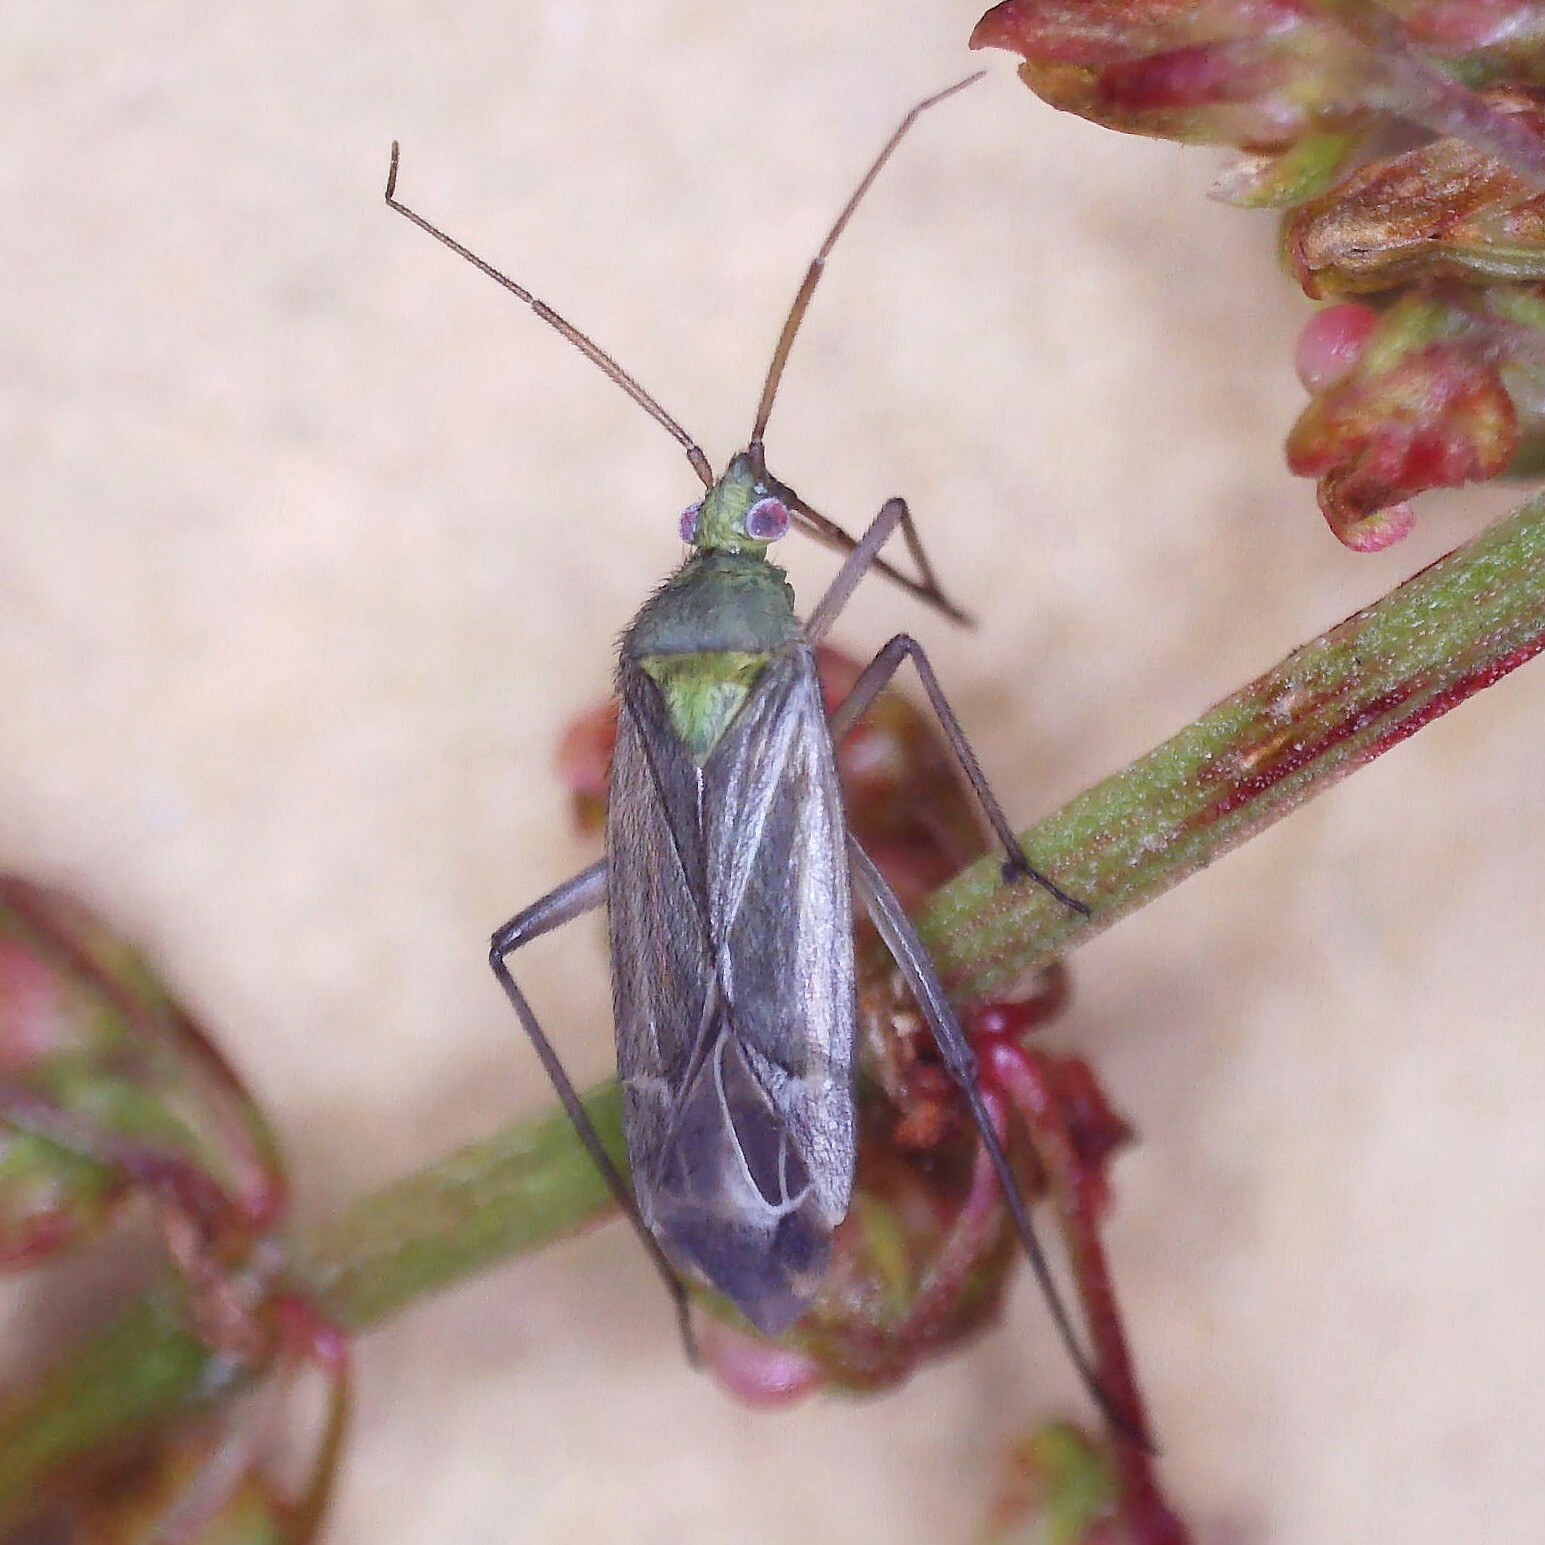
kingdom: Animalia
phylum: Arthropoda
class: Insecta
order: Hemiptera
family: Miridae
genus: Macrotylus
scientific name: Macrotylus solitarius
